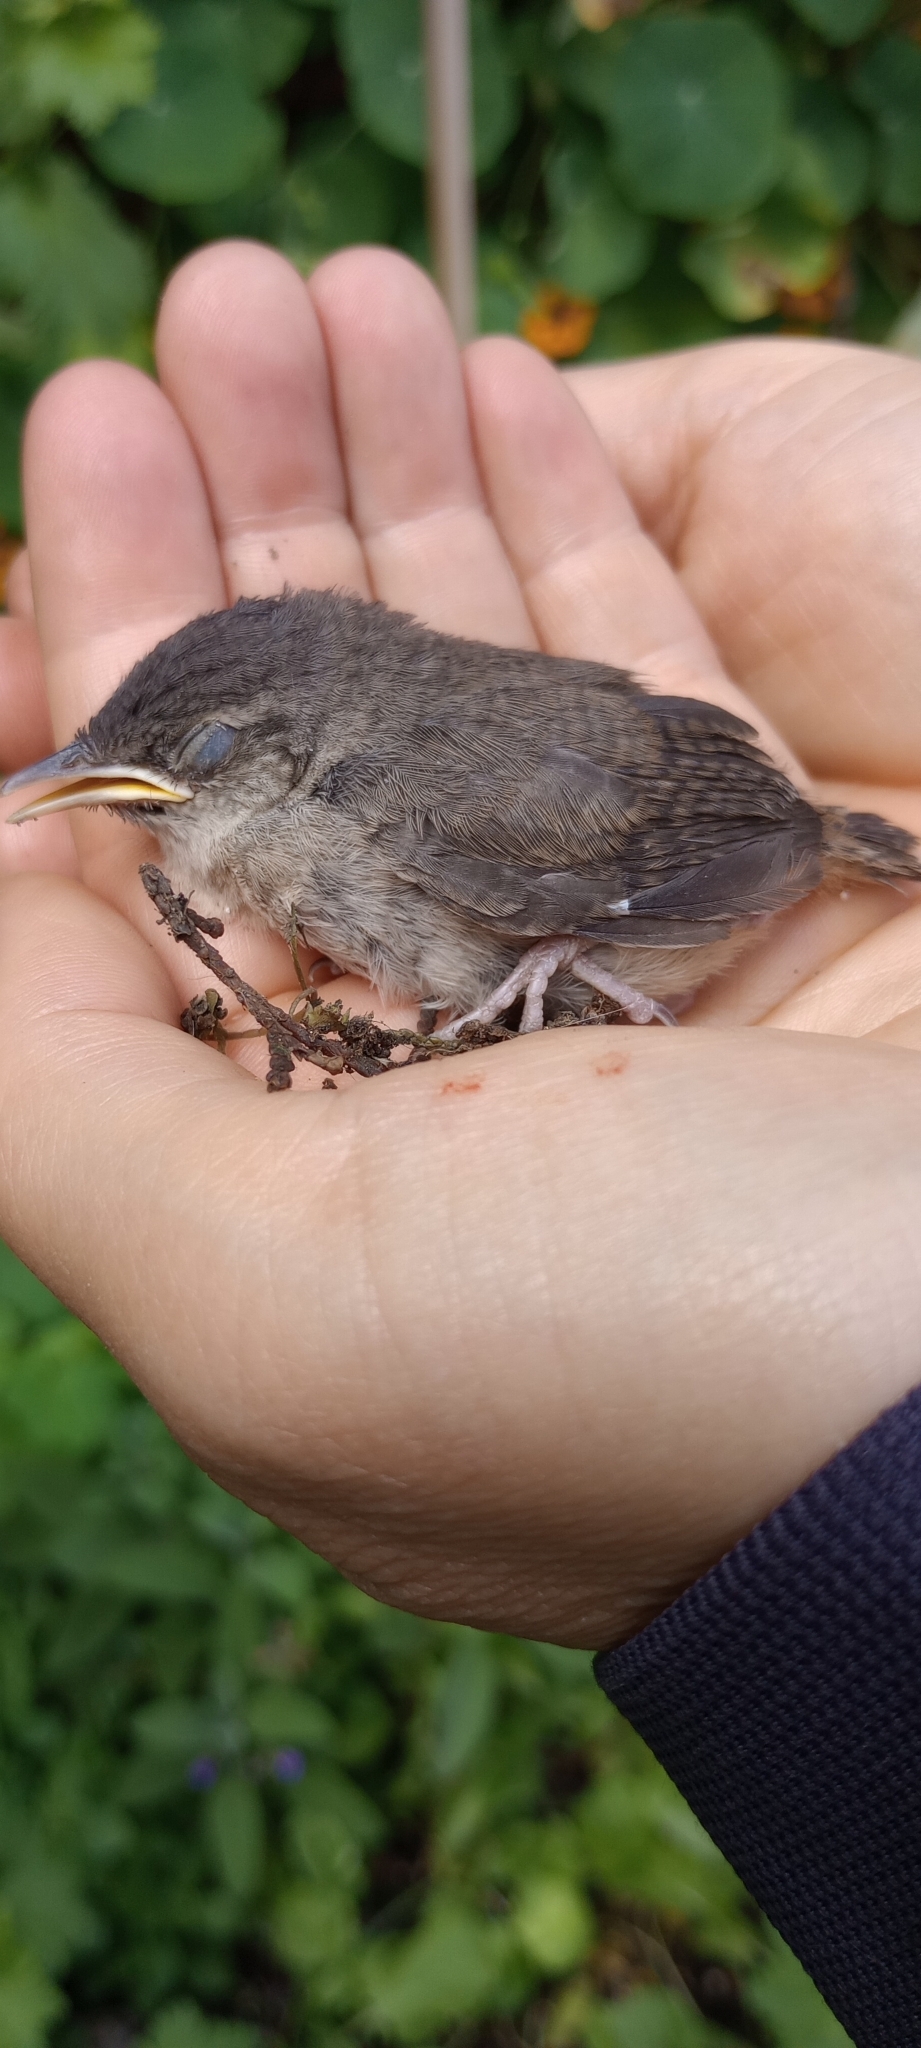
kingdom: Animalia
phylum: Chordata
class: Aves
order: Passeriformes
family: Troglodytidae
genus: Troglodytes
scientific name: Troglodytes aedon
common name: House wren
